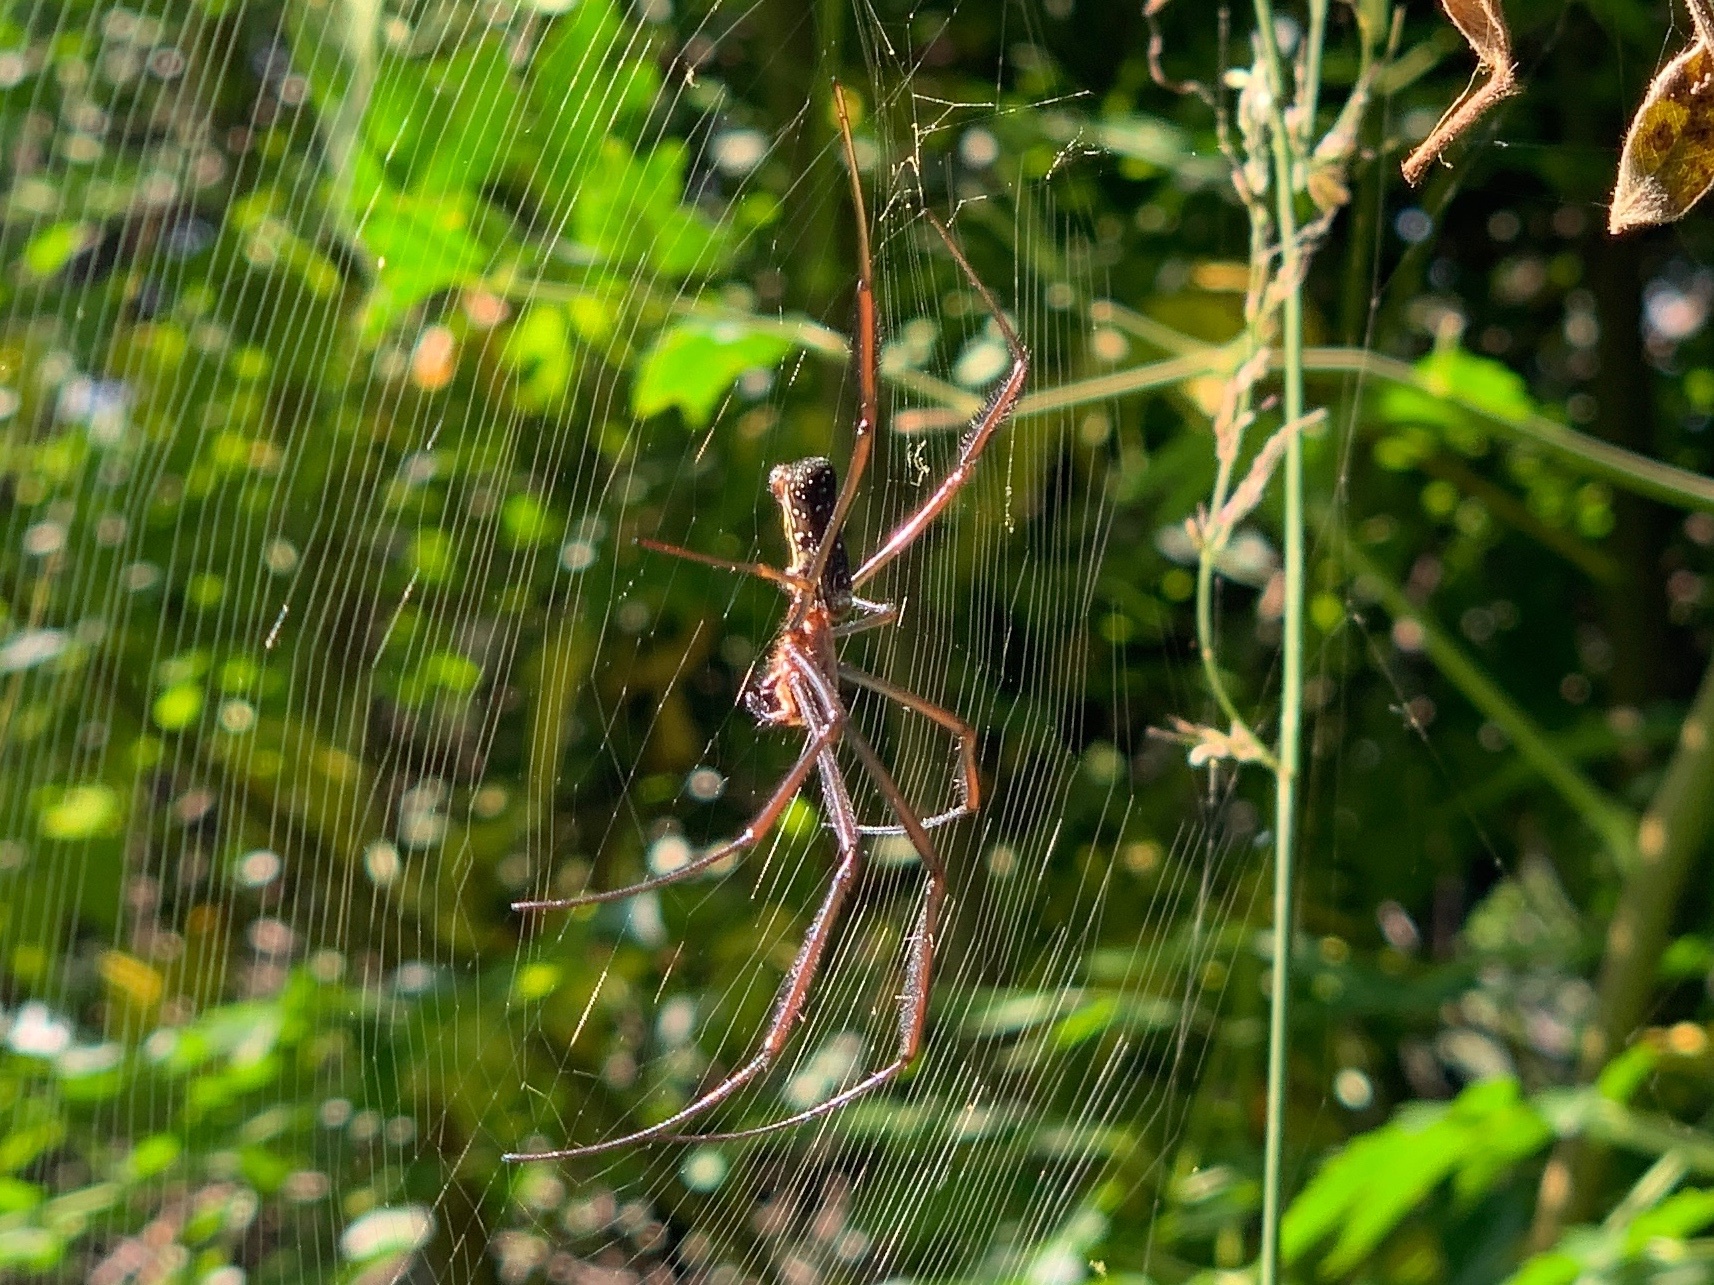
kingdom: Animalia
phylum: Arthropoda
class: Arachnida
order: Araneae
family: Araneidae
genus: Trichonephila
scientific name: Trichonephila fenestrata
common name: Hairy golden orb weaver
